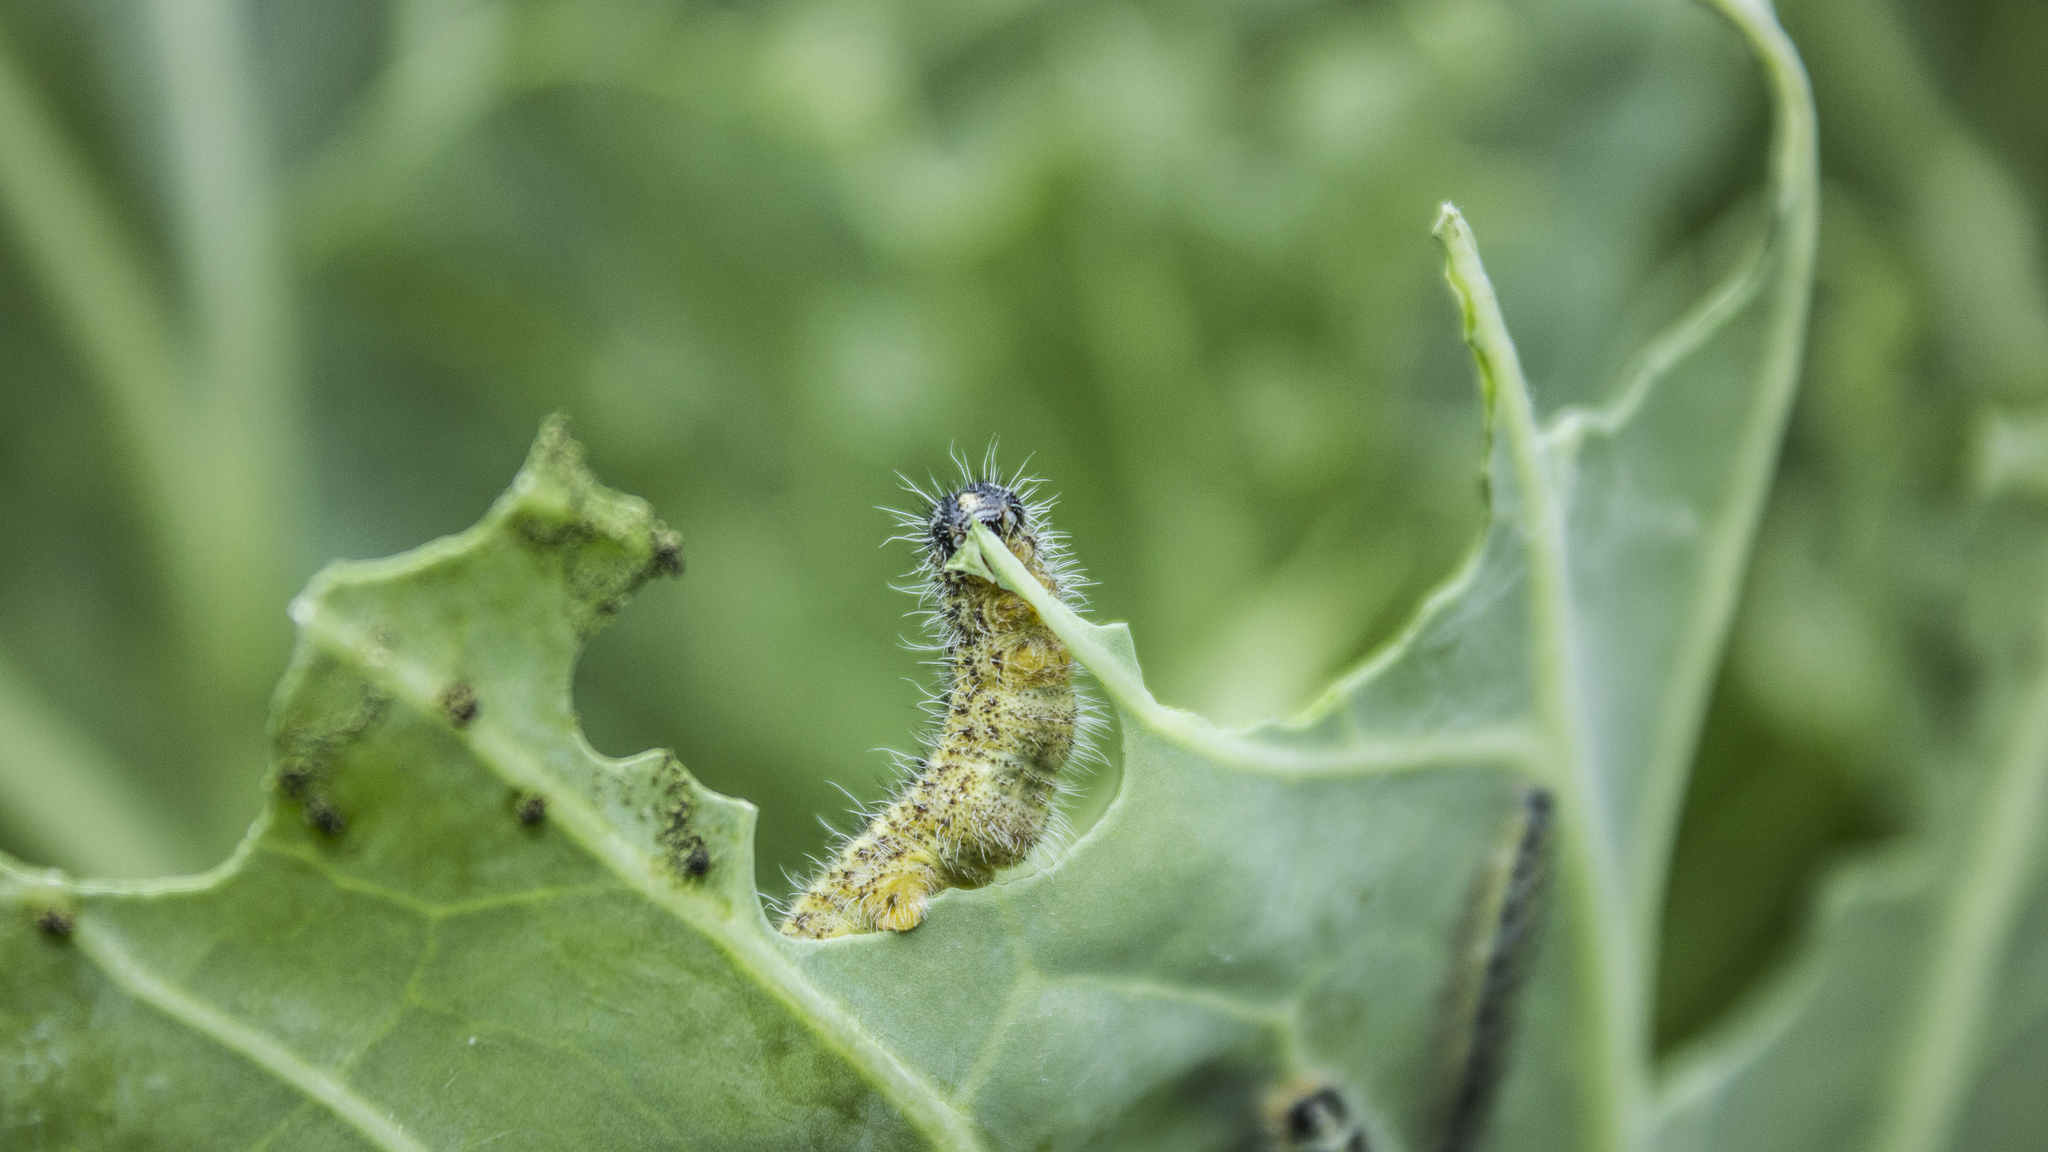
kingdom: Animalia
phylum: Arthropoda
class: Insecta
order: Lepidoptera
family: Pieridae
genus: Pieris
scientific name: Pieris brassicae
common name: Large white
